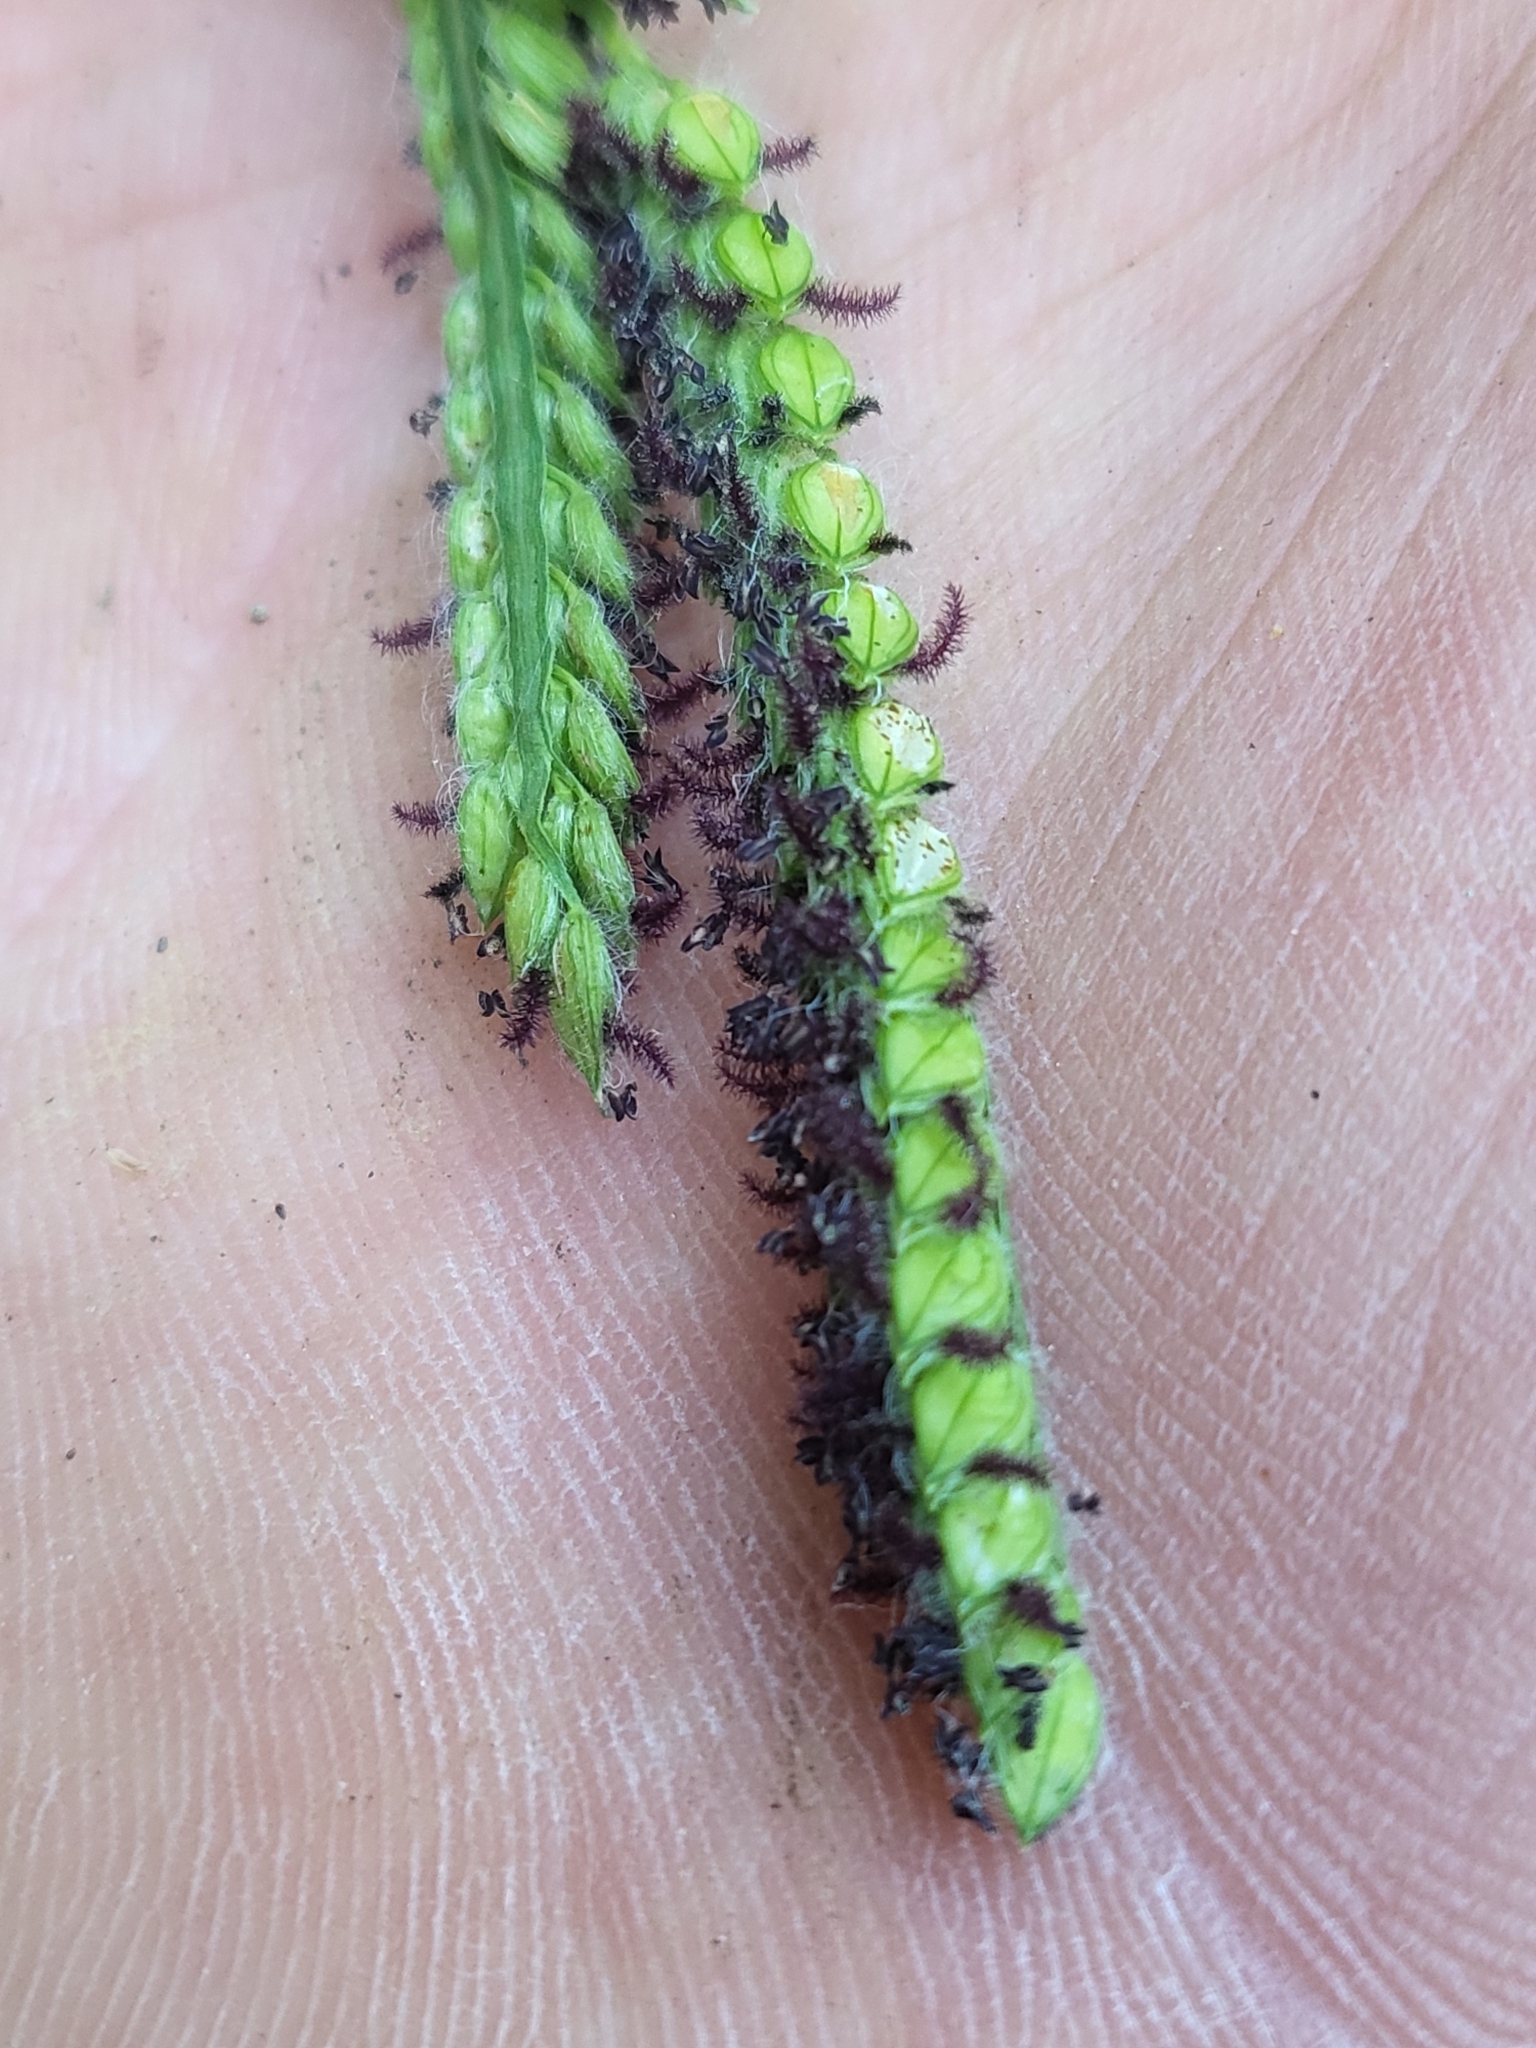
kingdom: Plantae
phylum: Tracheophyta
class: Liliopsida
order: Poales
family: Poaceae
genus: Paspalum
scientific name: Paspalum dilatatum
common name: Dallisgrass
